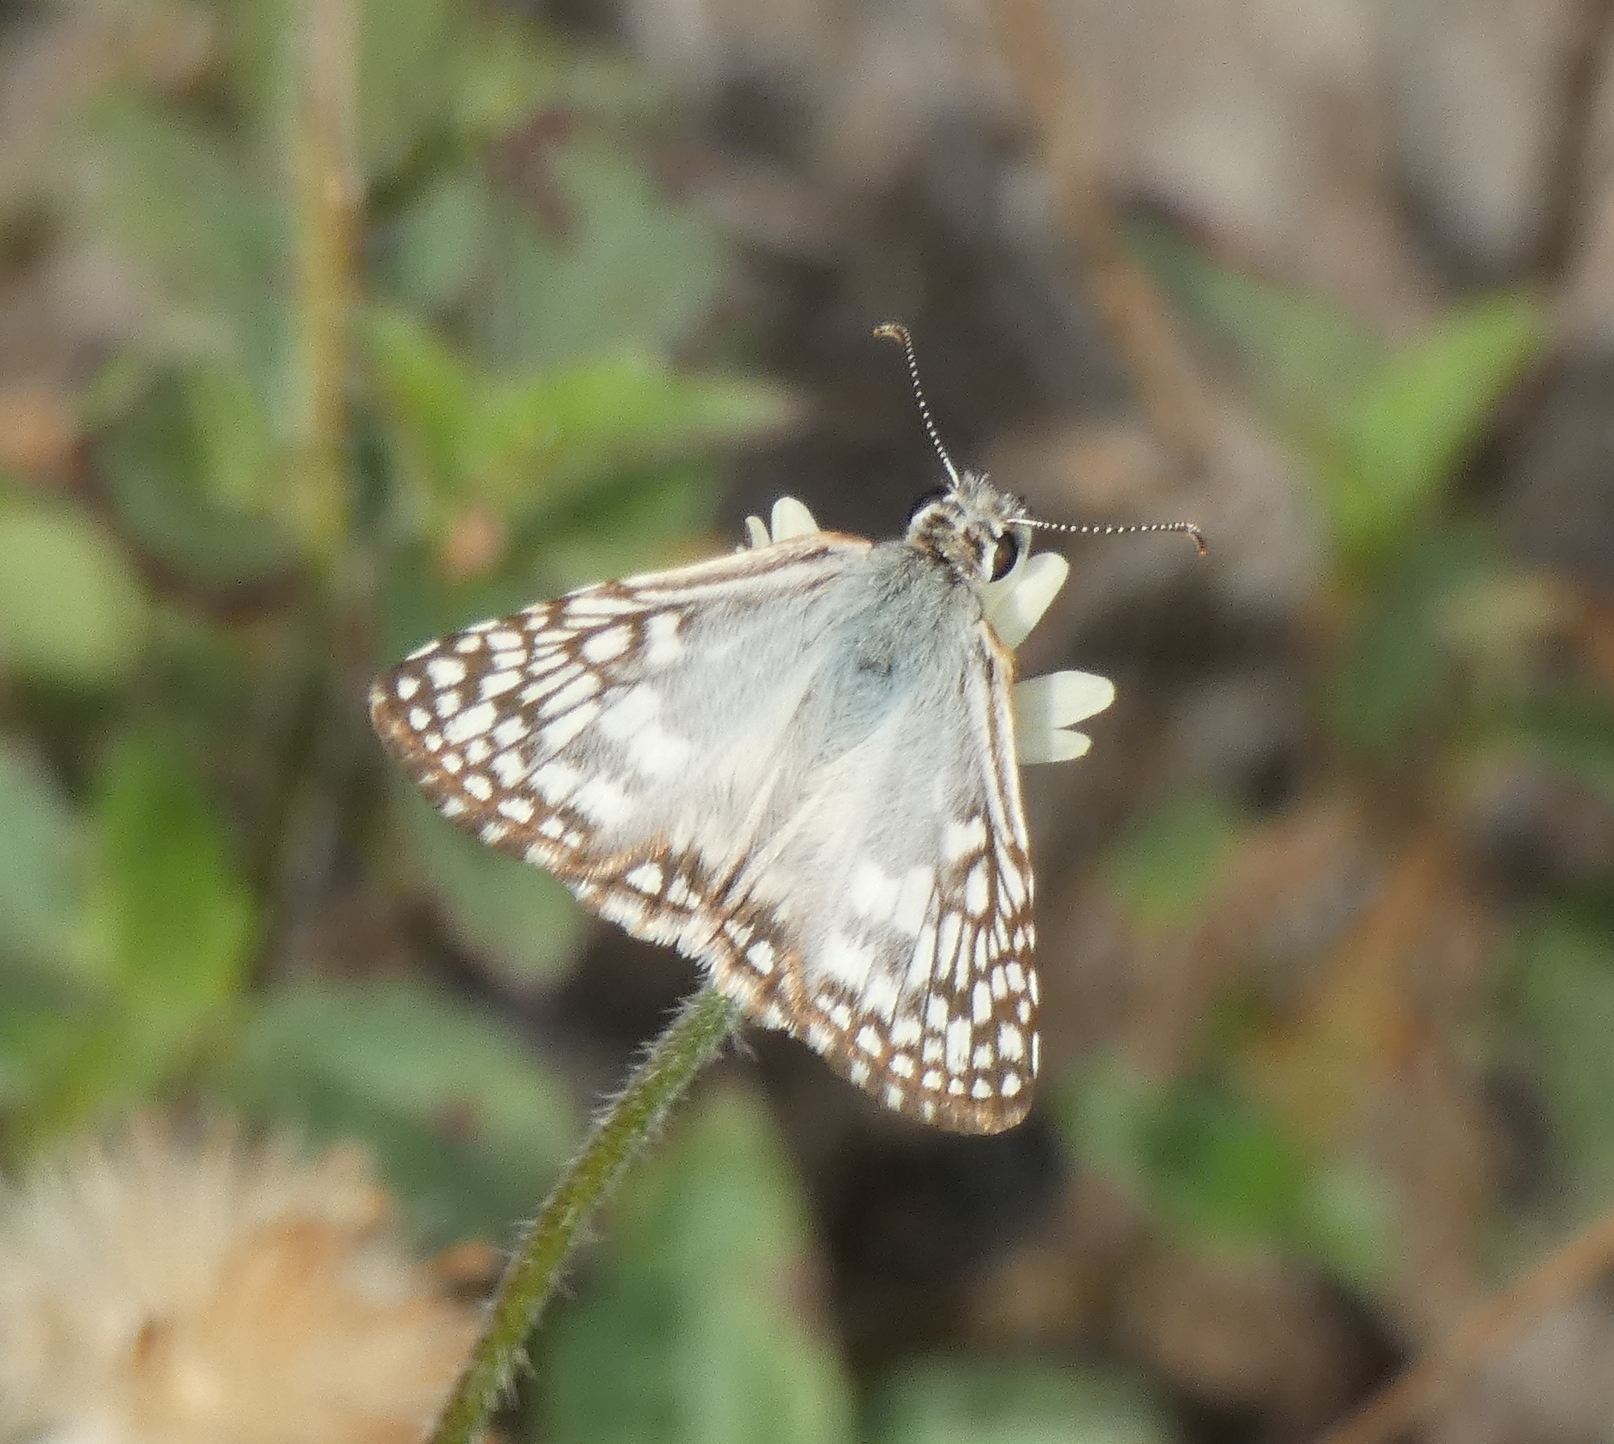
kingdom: Animalia
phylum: Arthropoda
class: Insecta
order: Lepidoptera
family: Hesperiidae
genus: Pyrgus
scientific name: Pyrgus oileus
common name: Tropical checkered-skipper
